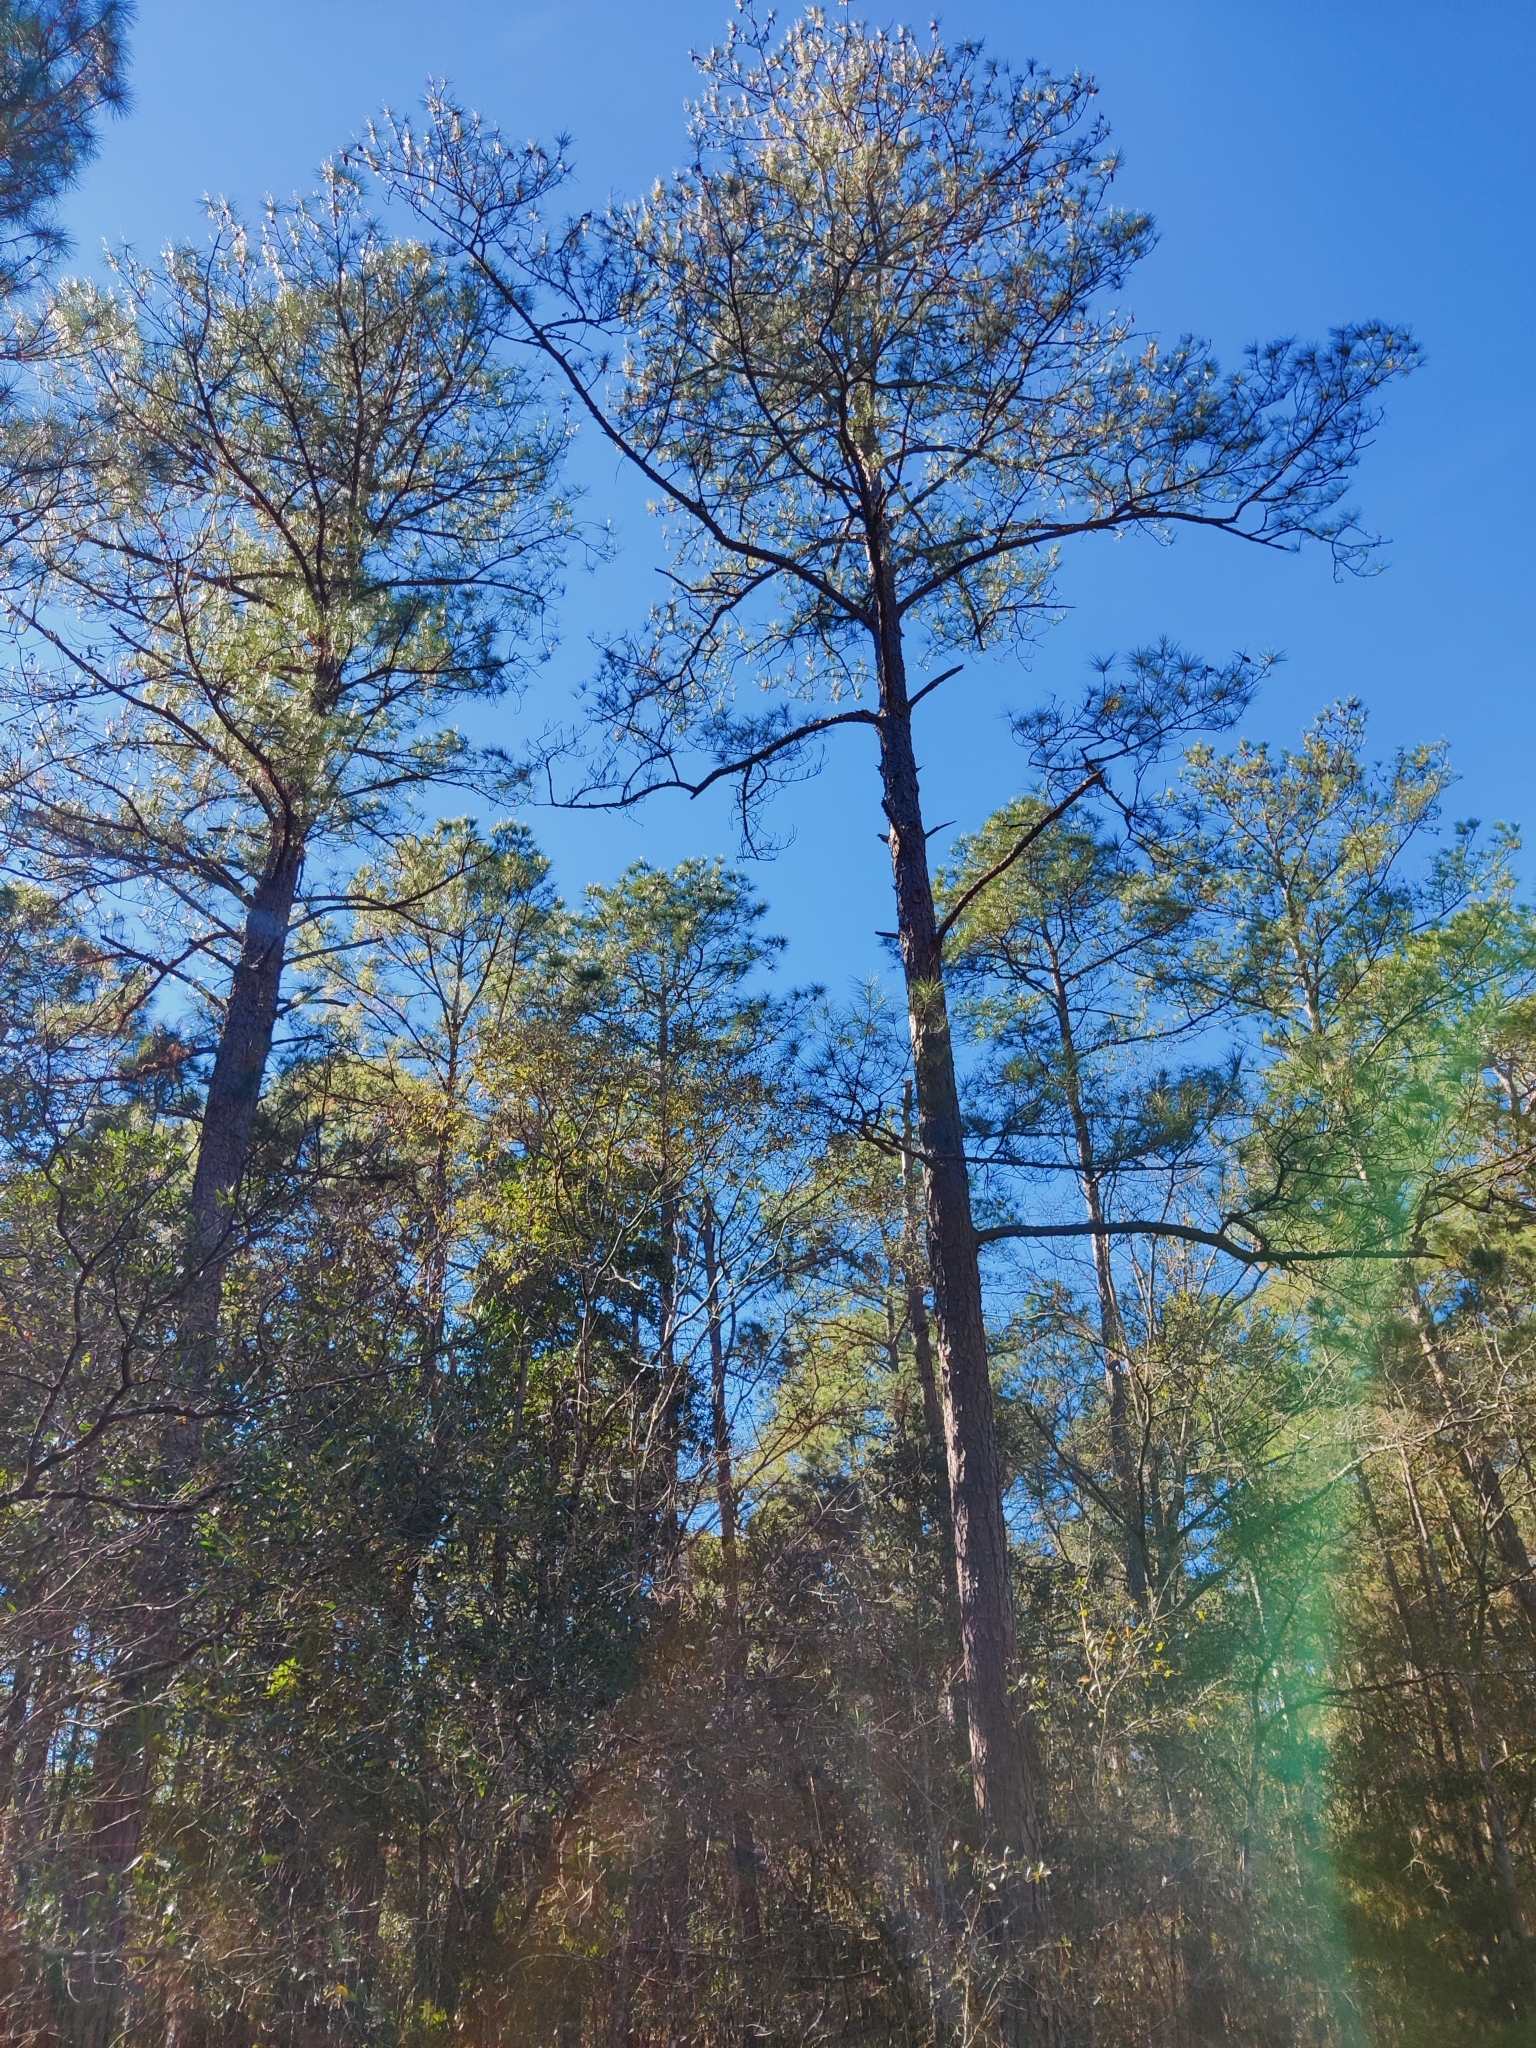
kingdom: Plantae
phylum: Tracheophyta
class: Pinopsida
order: Pinales
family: Pinaceae
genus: Pinus
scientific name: Pinus serotina
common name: Marsh pine
